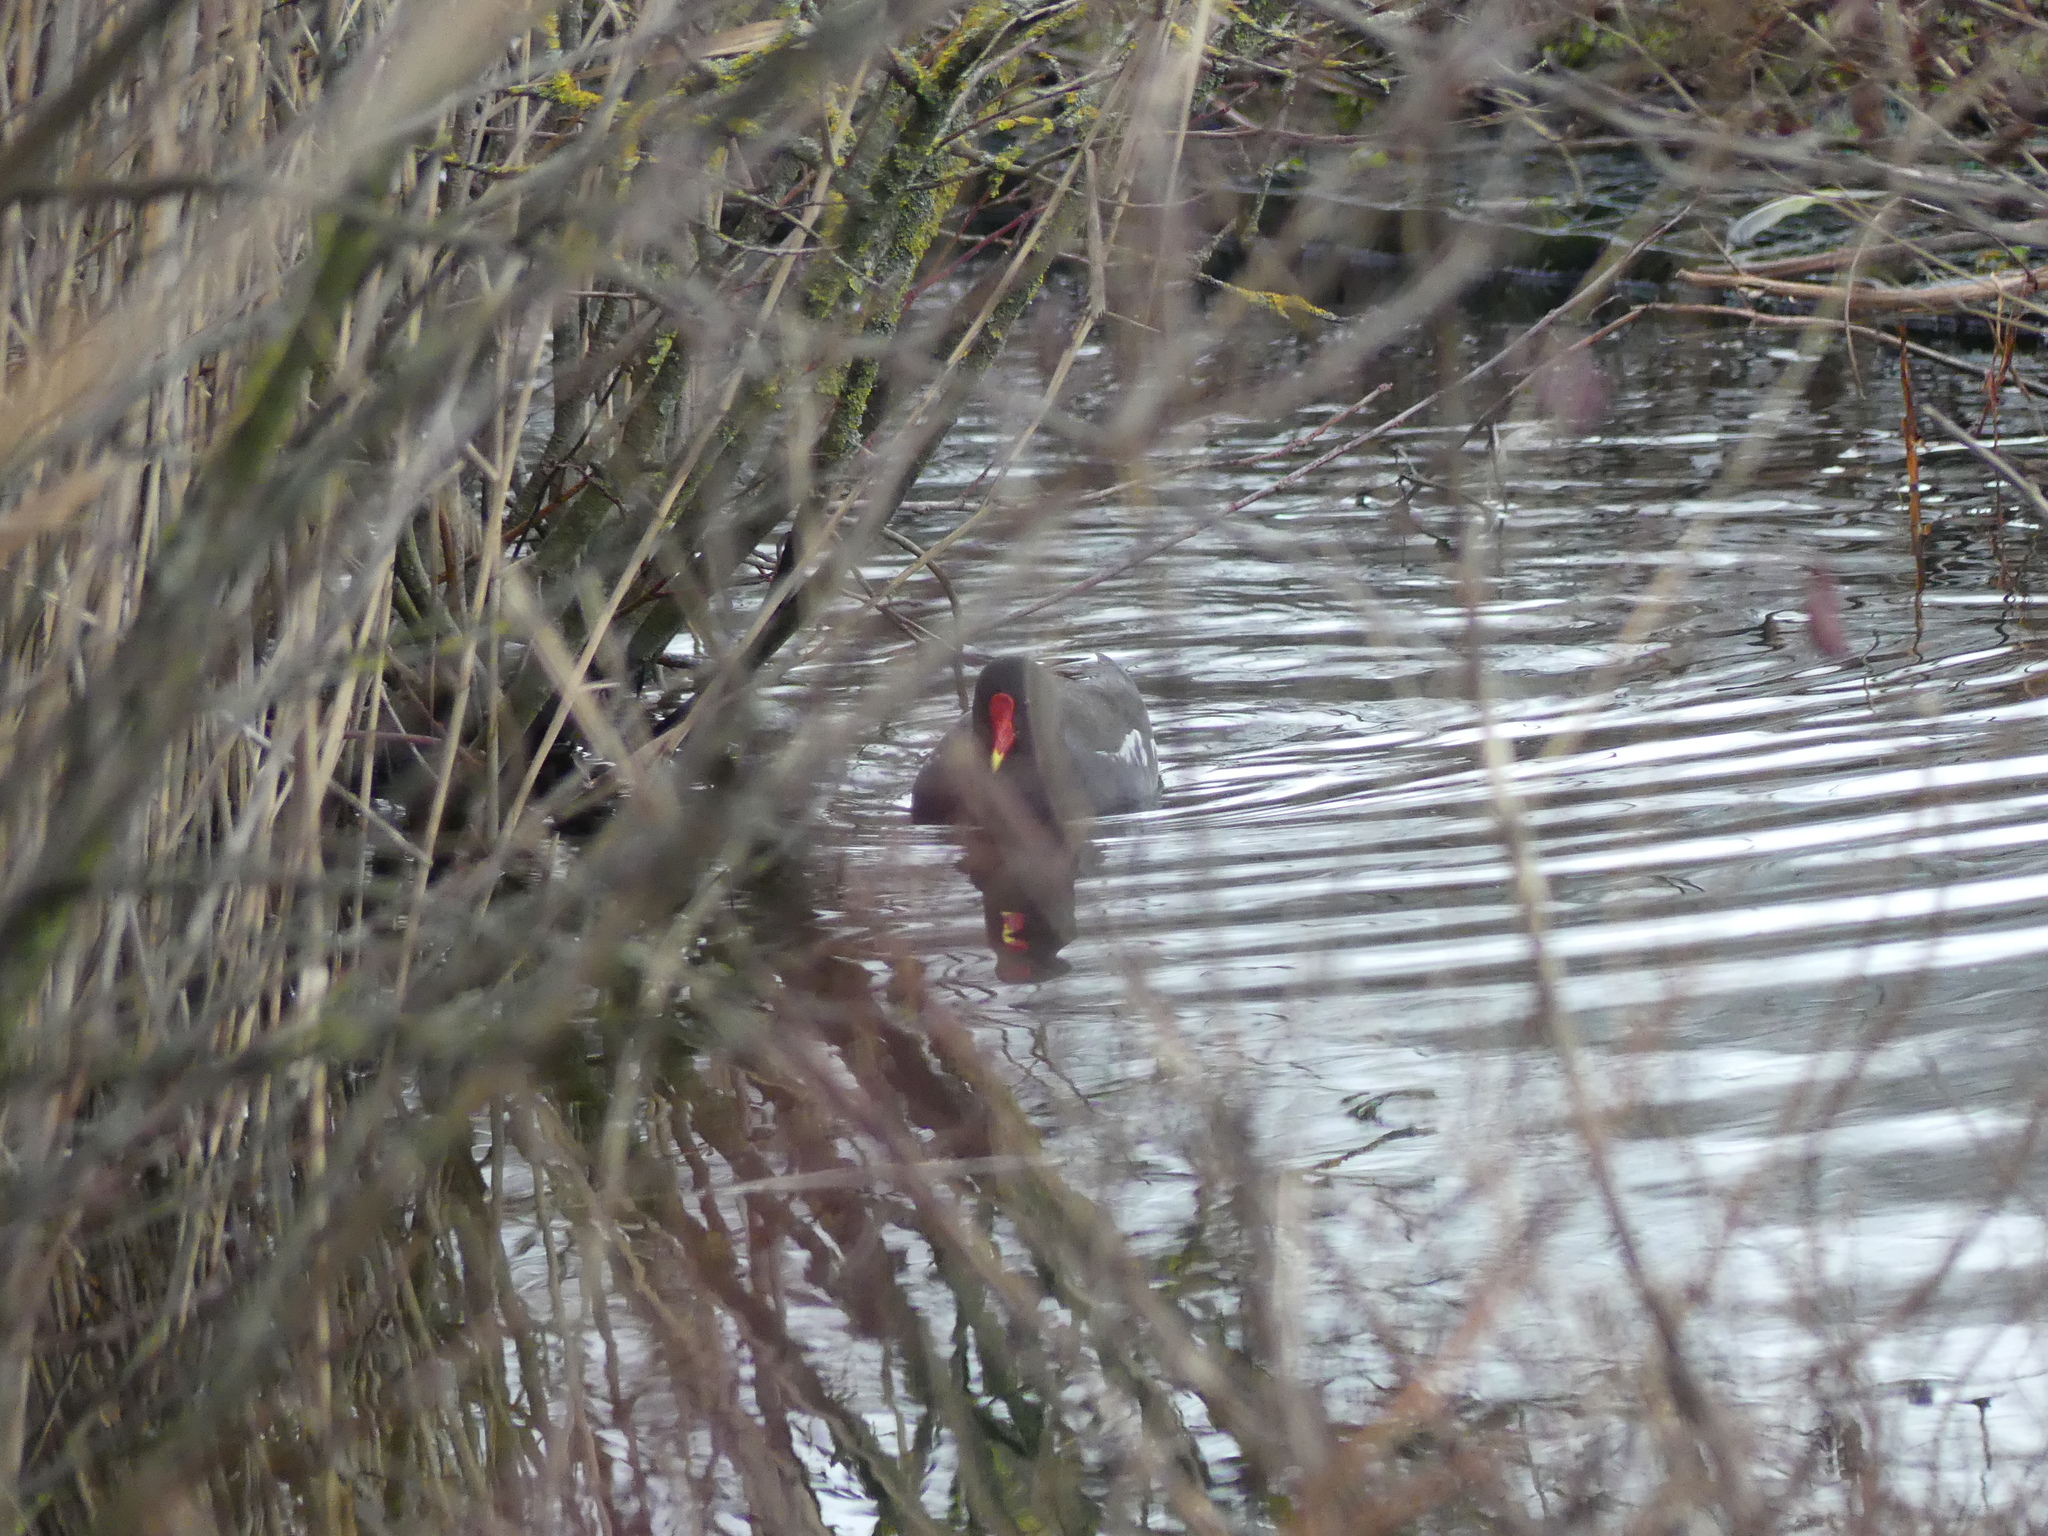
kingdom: Animalia
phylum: Chordata
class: Aves
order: Gruiformes
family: Rallidae
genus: Gallinula
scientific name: Gallinula chloropus
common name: Common moorhen
